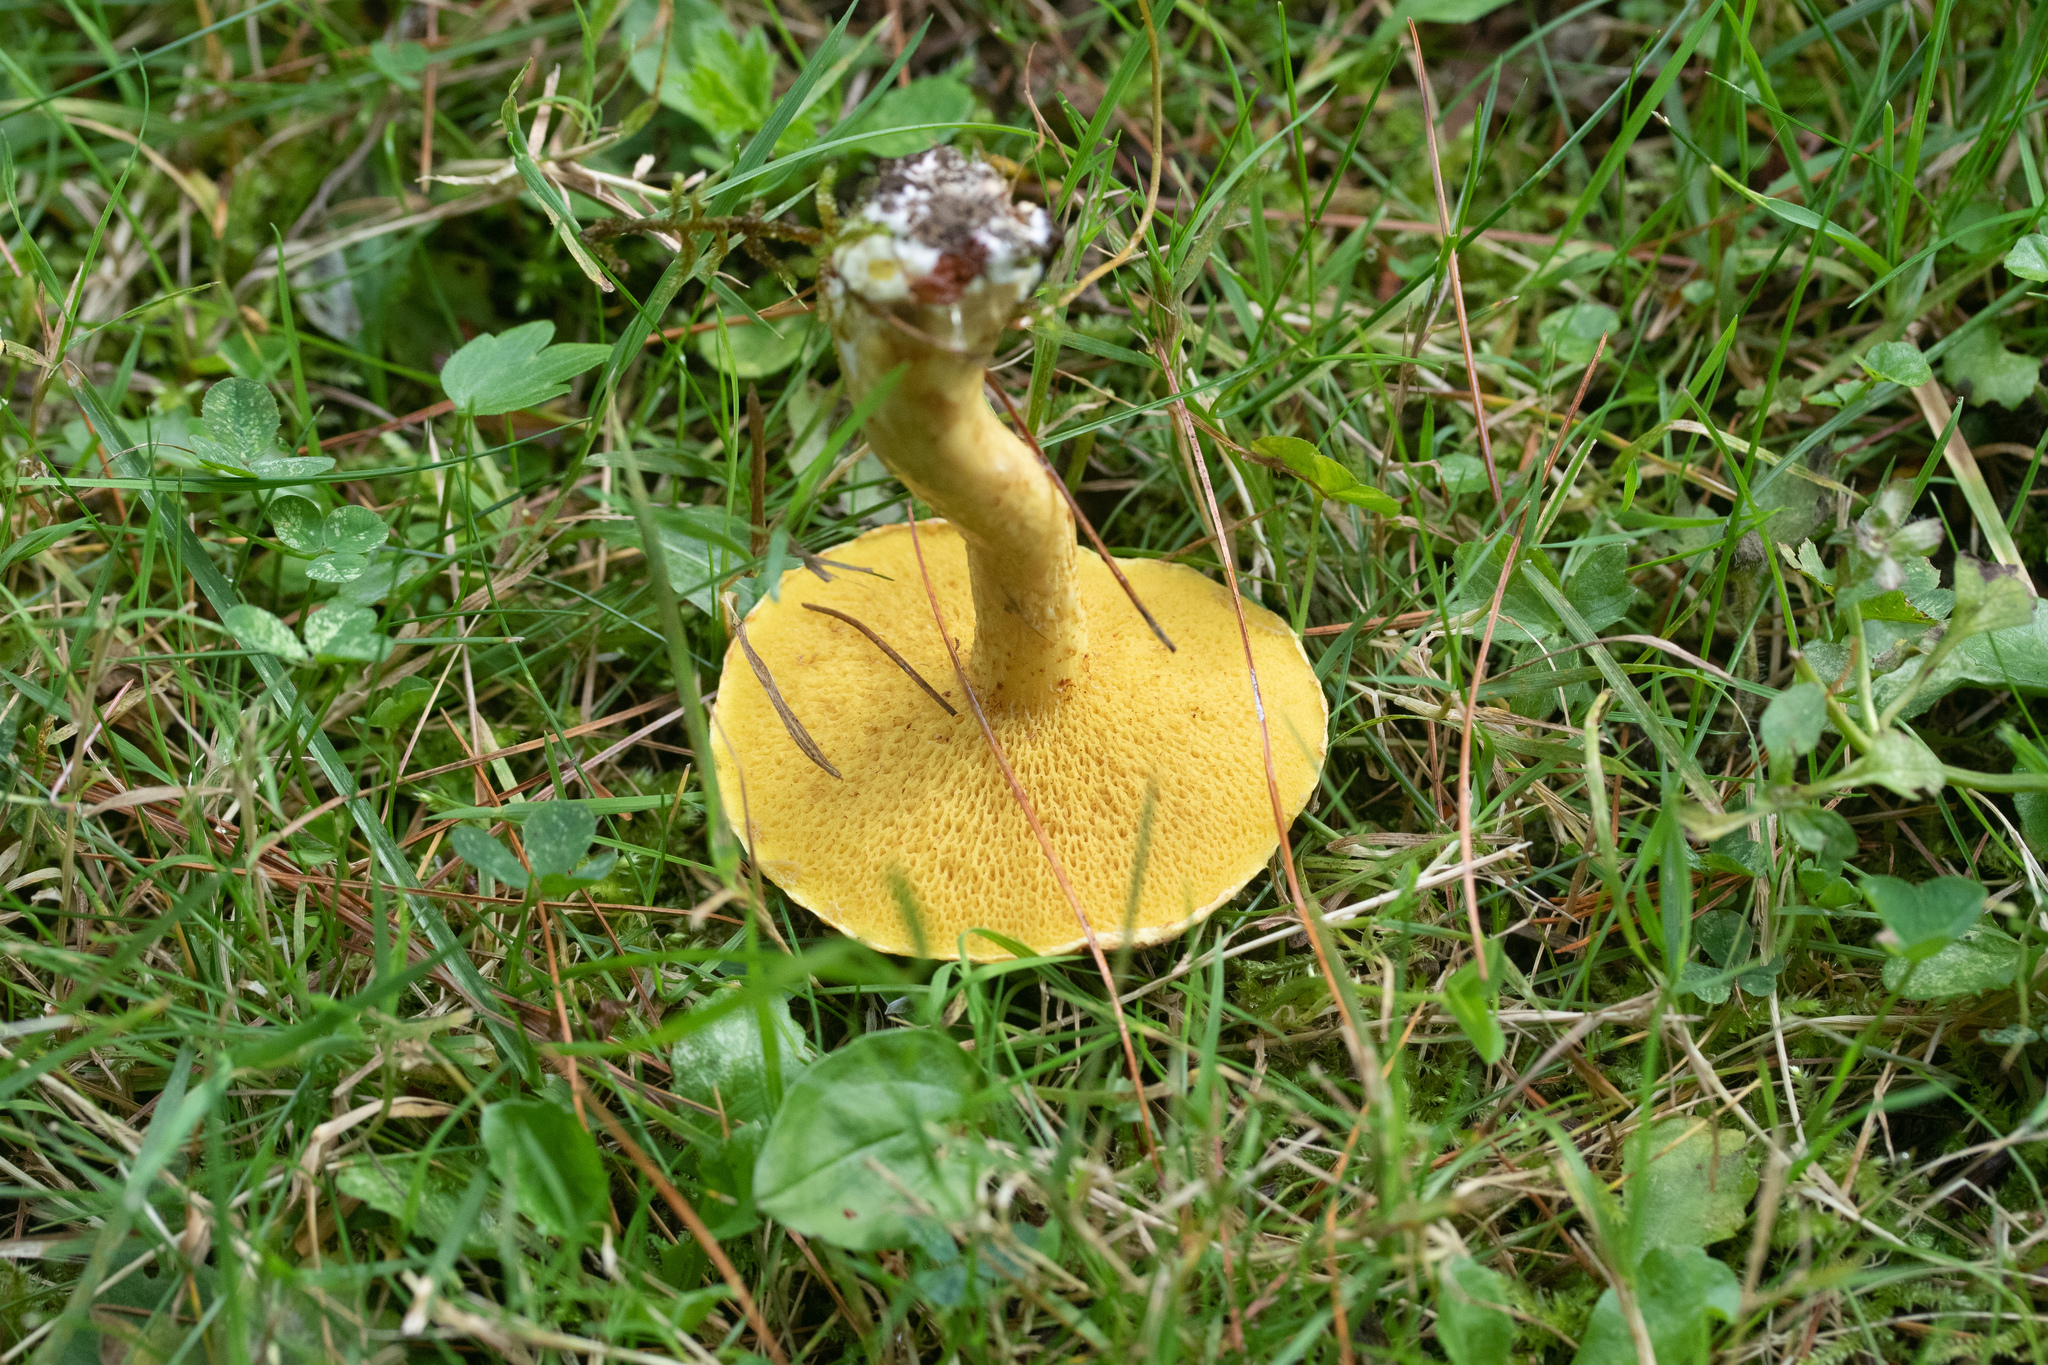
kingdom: Fungi
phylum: Basidiomycota
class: Agaricomycetes
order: Boletales
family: Suillaceae
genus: Suillus
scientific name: Suillus americanus
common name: Chicken fat mushroom
